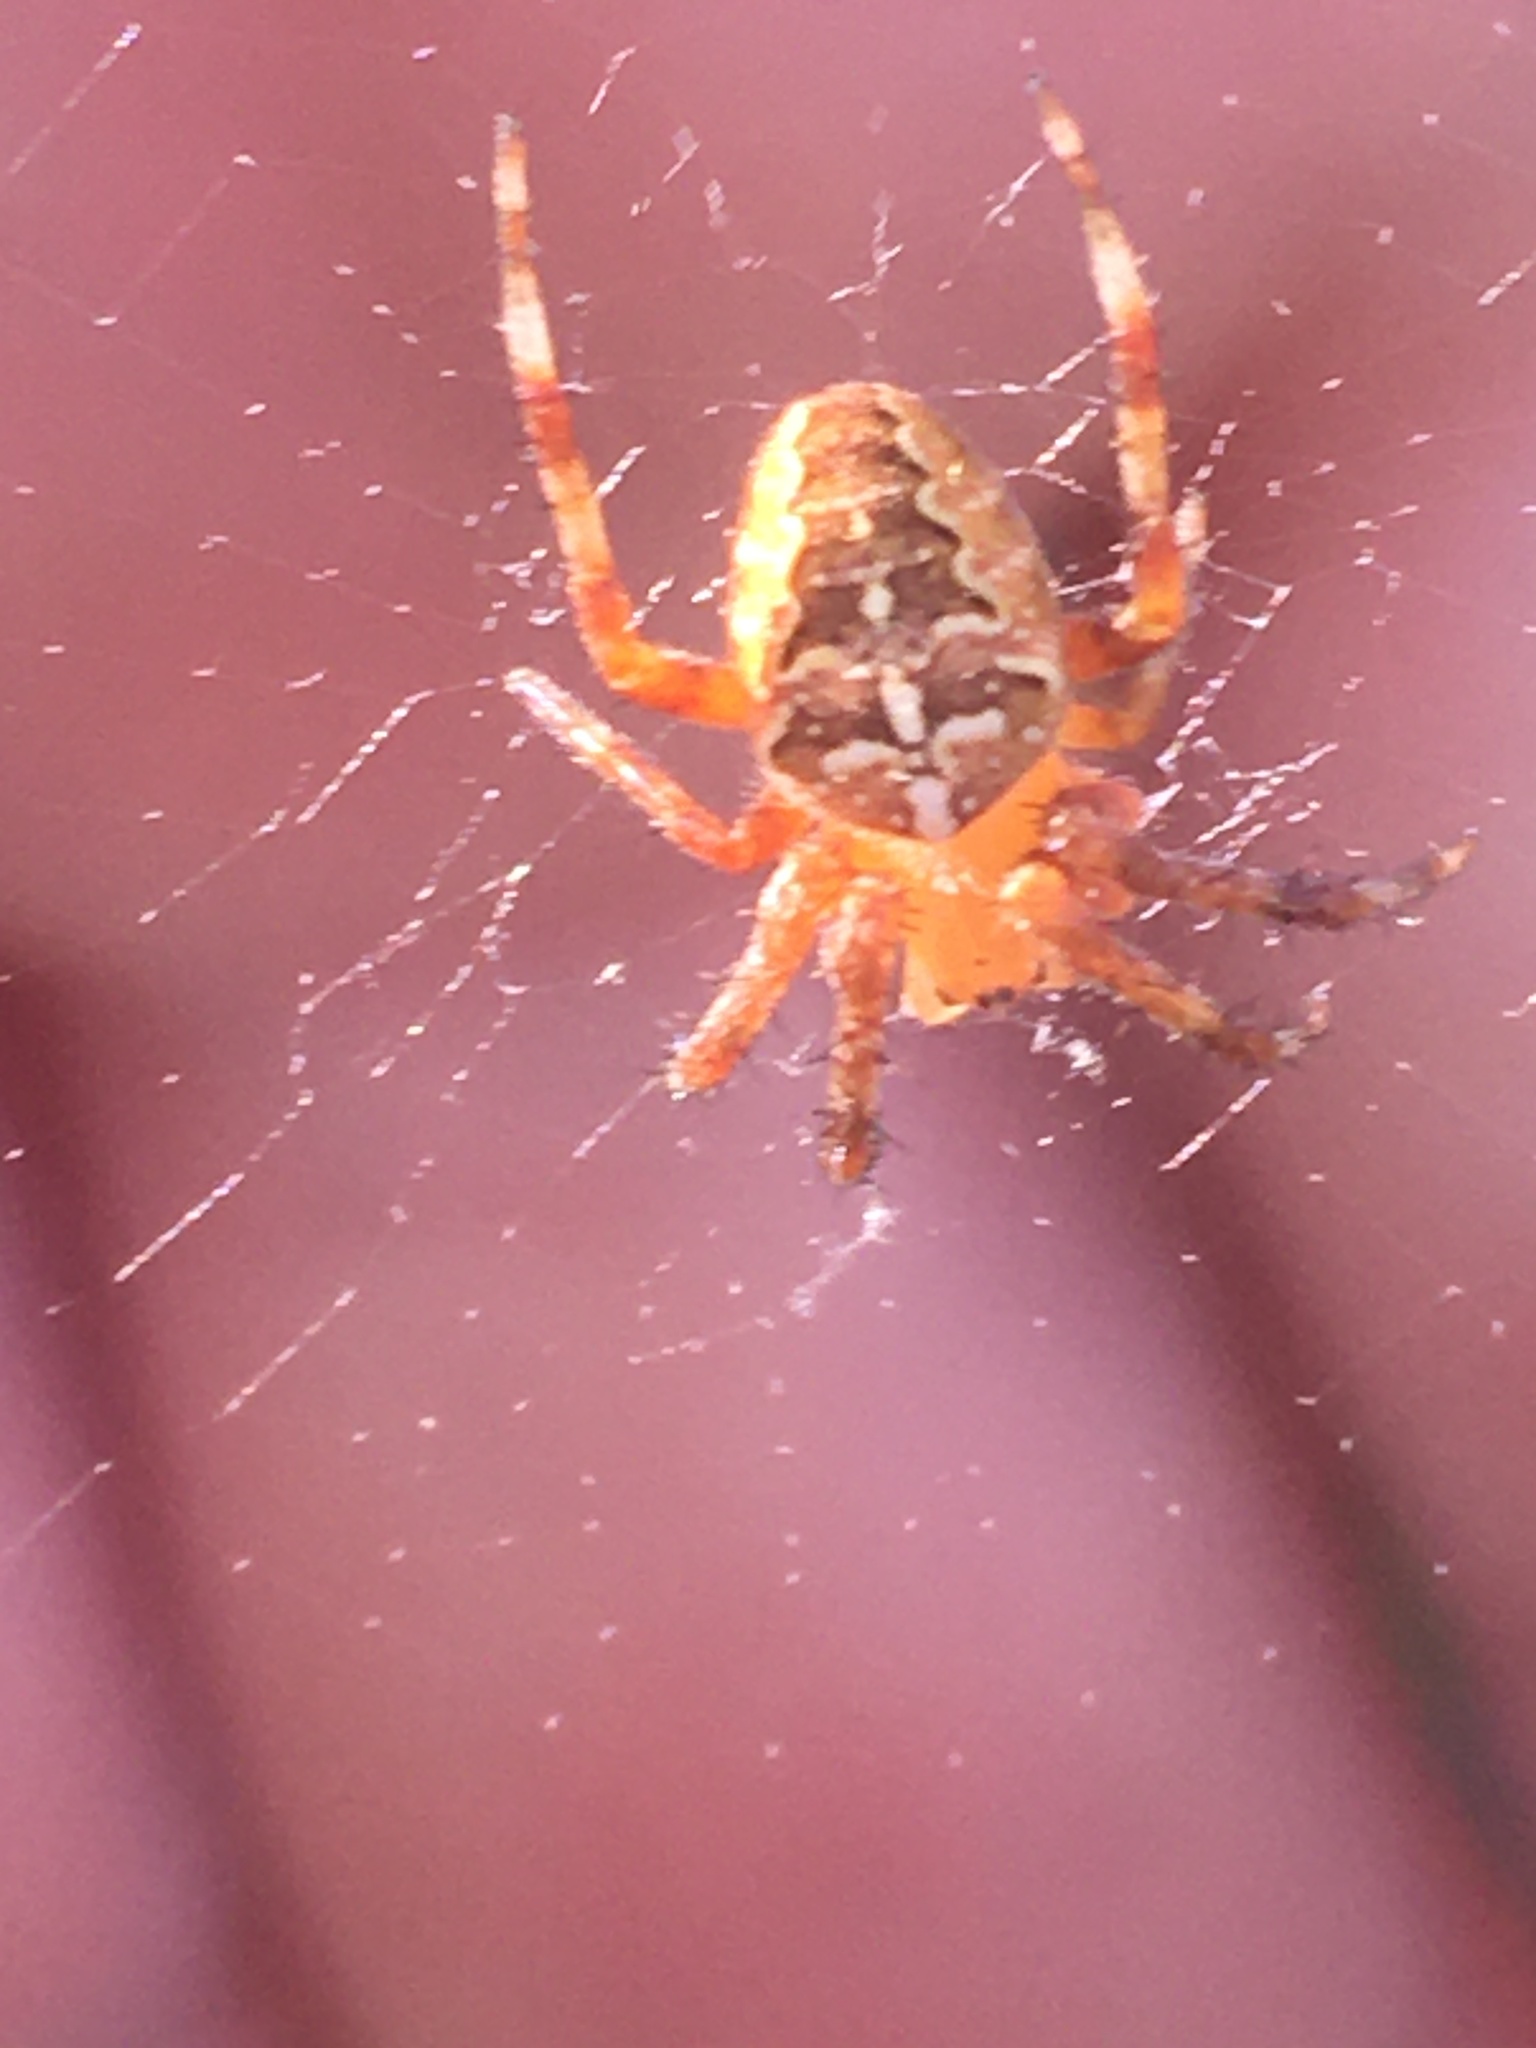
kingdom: Animalia
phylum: Arthropoda
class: Arachnida
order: Araneae
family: Araneidae
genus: Araneus
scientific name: Araneus diadematus
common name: Cross orbweaver
